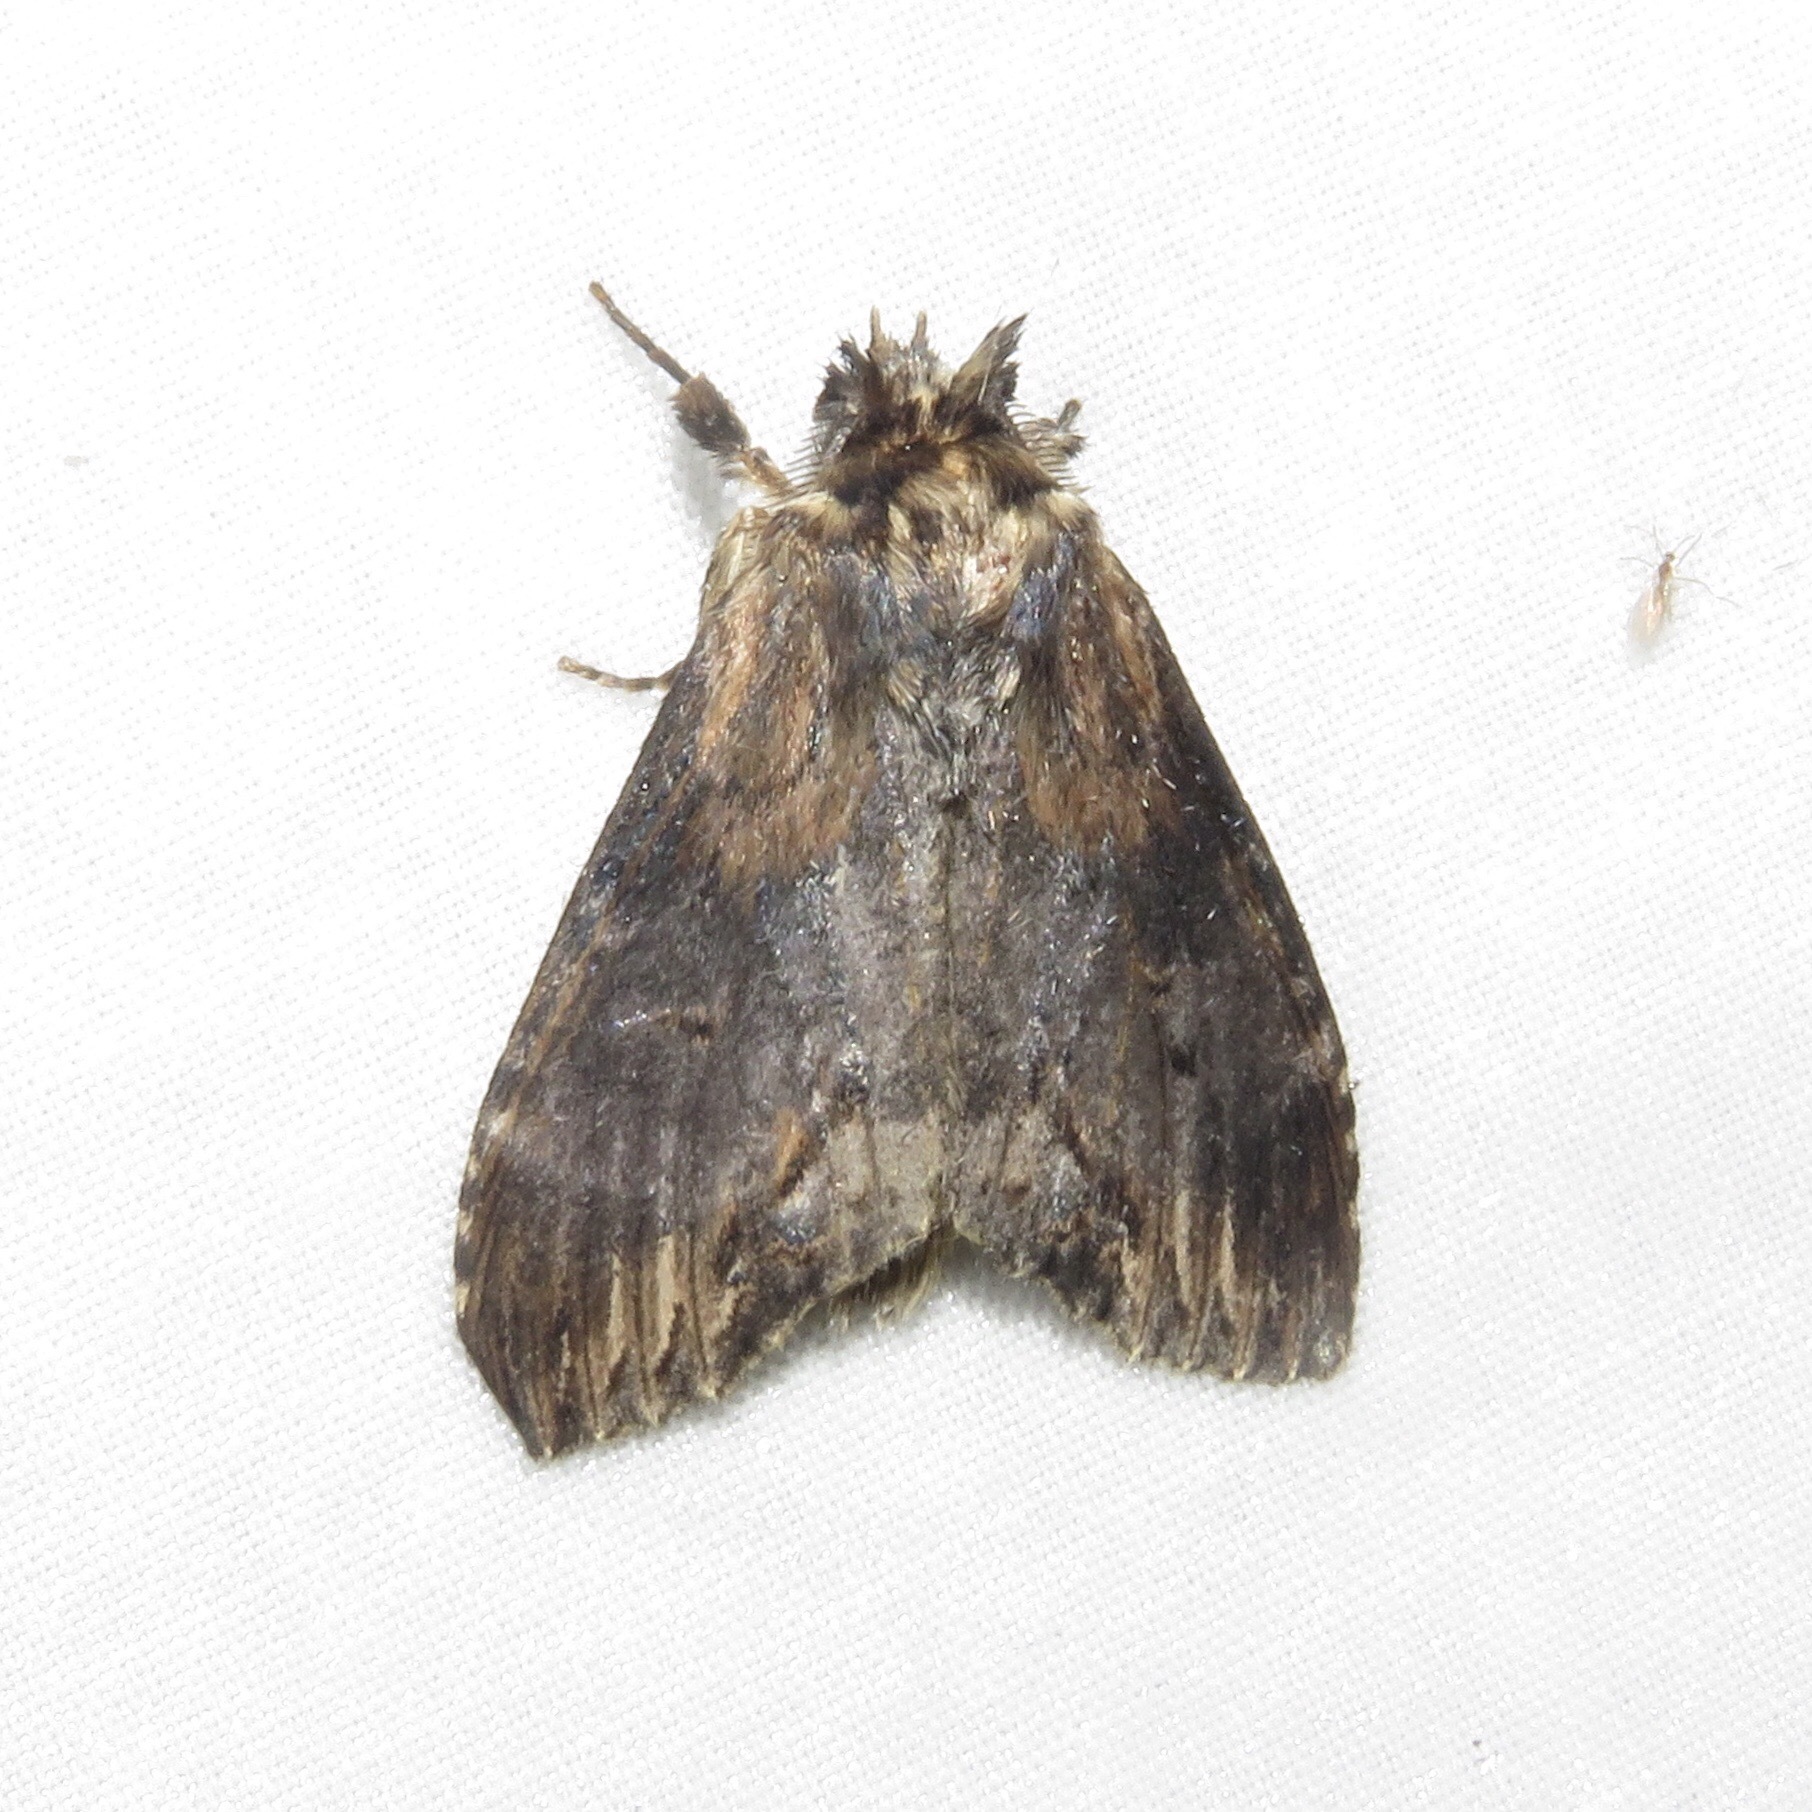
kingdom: Animalia
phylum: Arthropoda
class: Insecta
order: Lepidoptera
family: Notodontidae
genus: Dasylophia
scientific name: Dasylophia thyatiroides
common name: Gray-patched prominent
